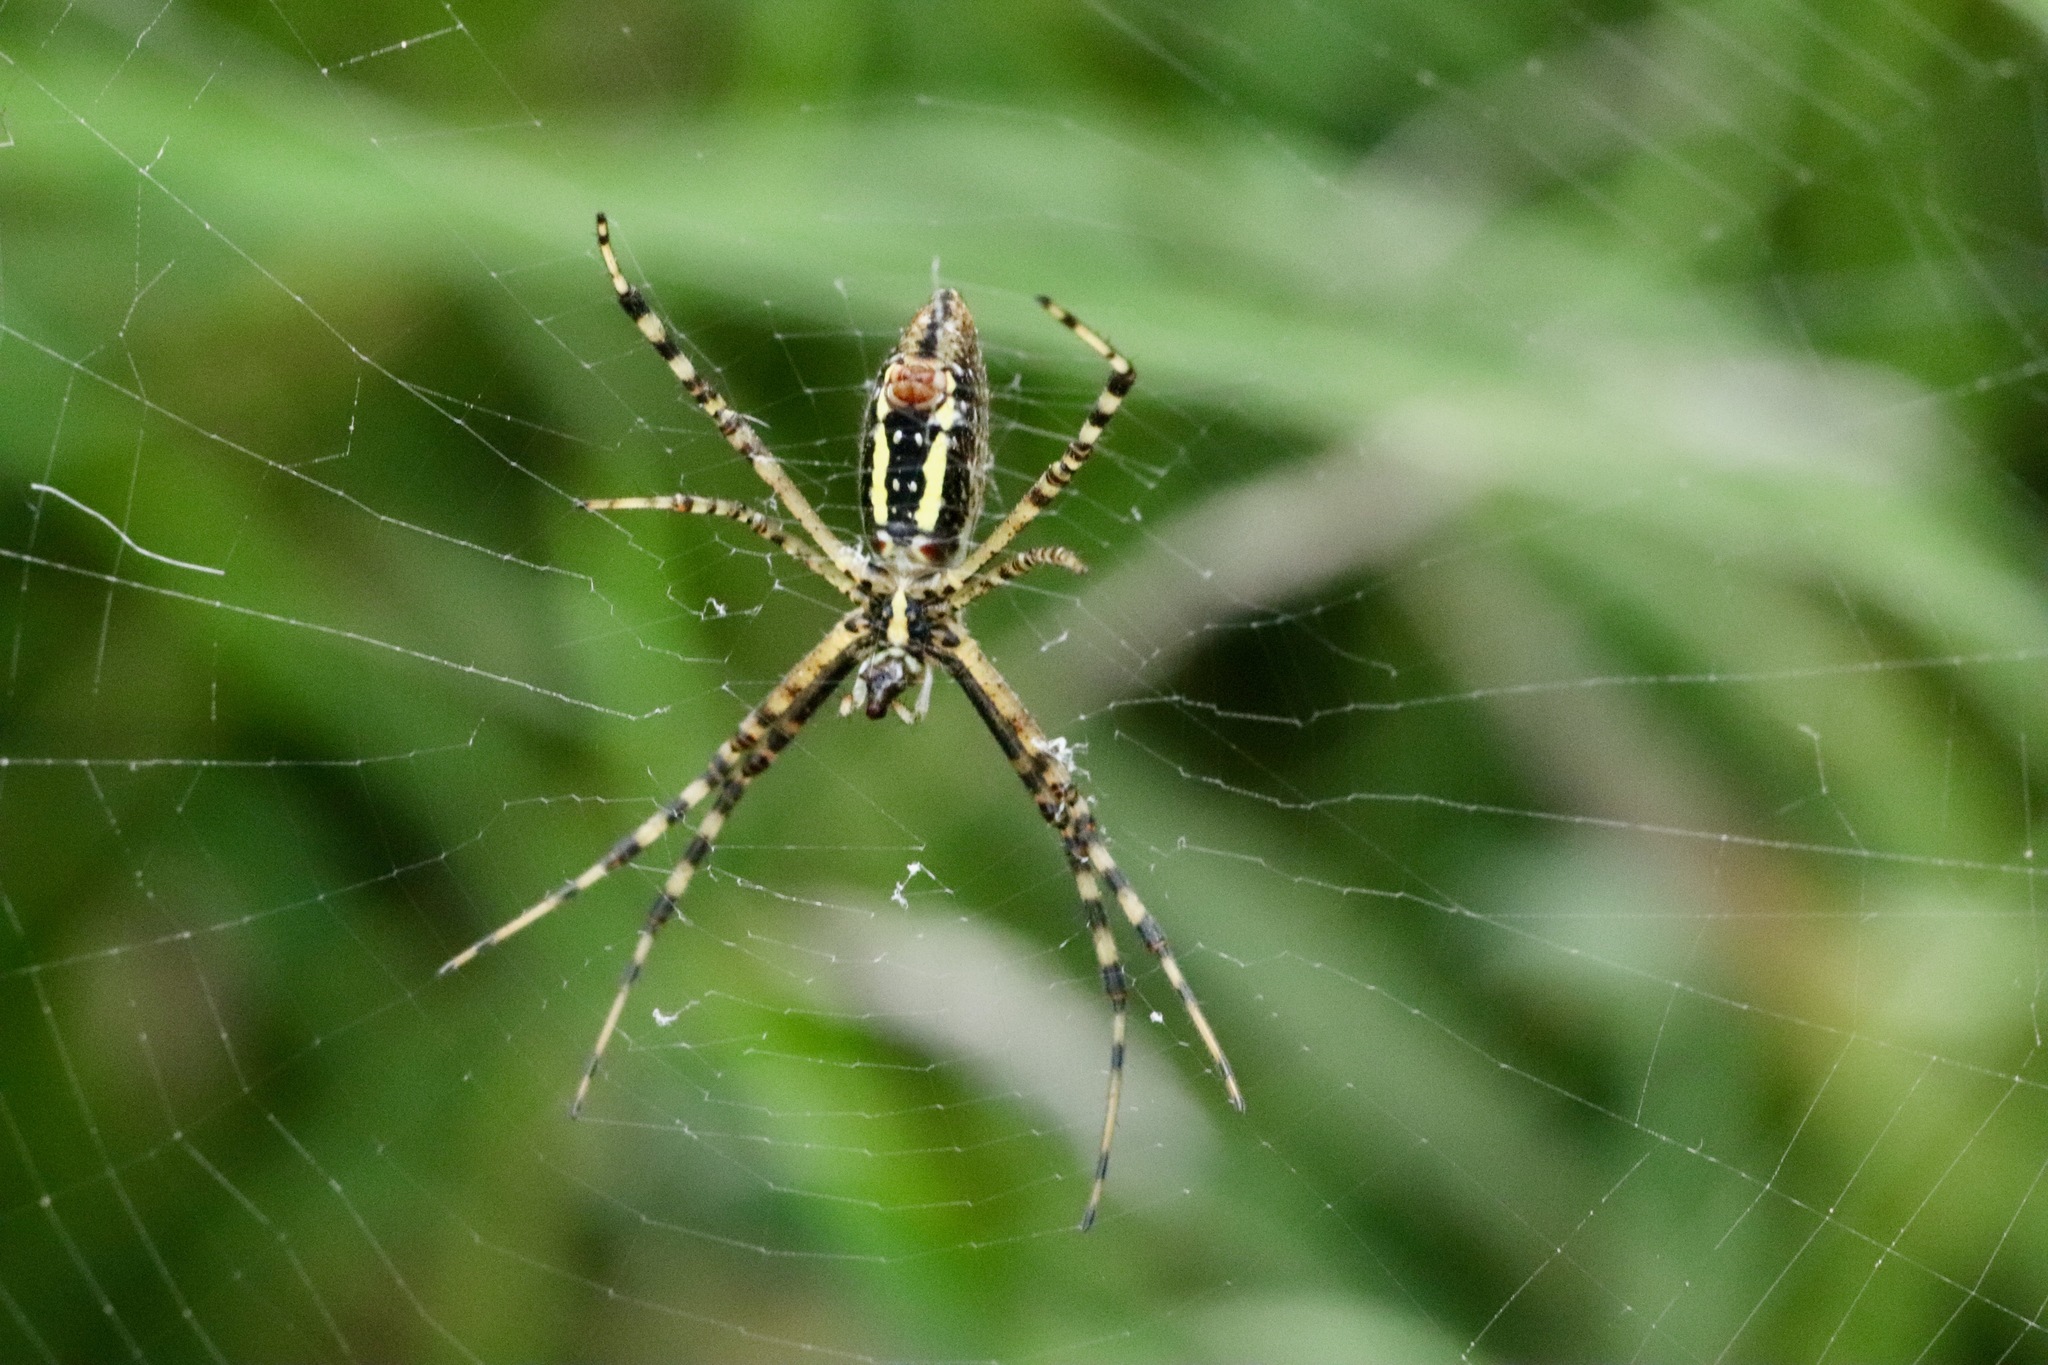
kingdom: Animalia
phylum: Arthropoda
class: Arachnida
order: Araneae
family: Araneidae
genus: Argiope
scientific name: Argiope trifasciata
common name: Banded garden spider
